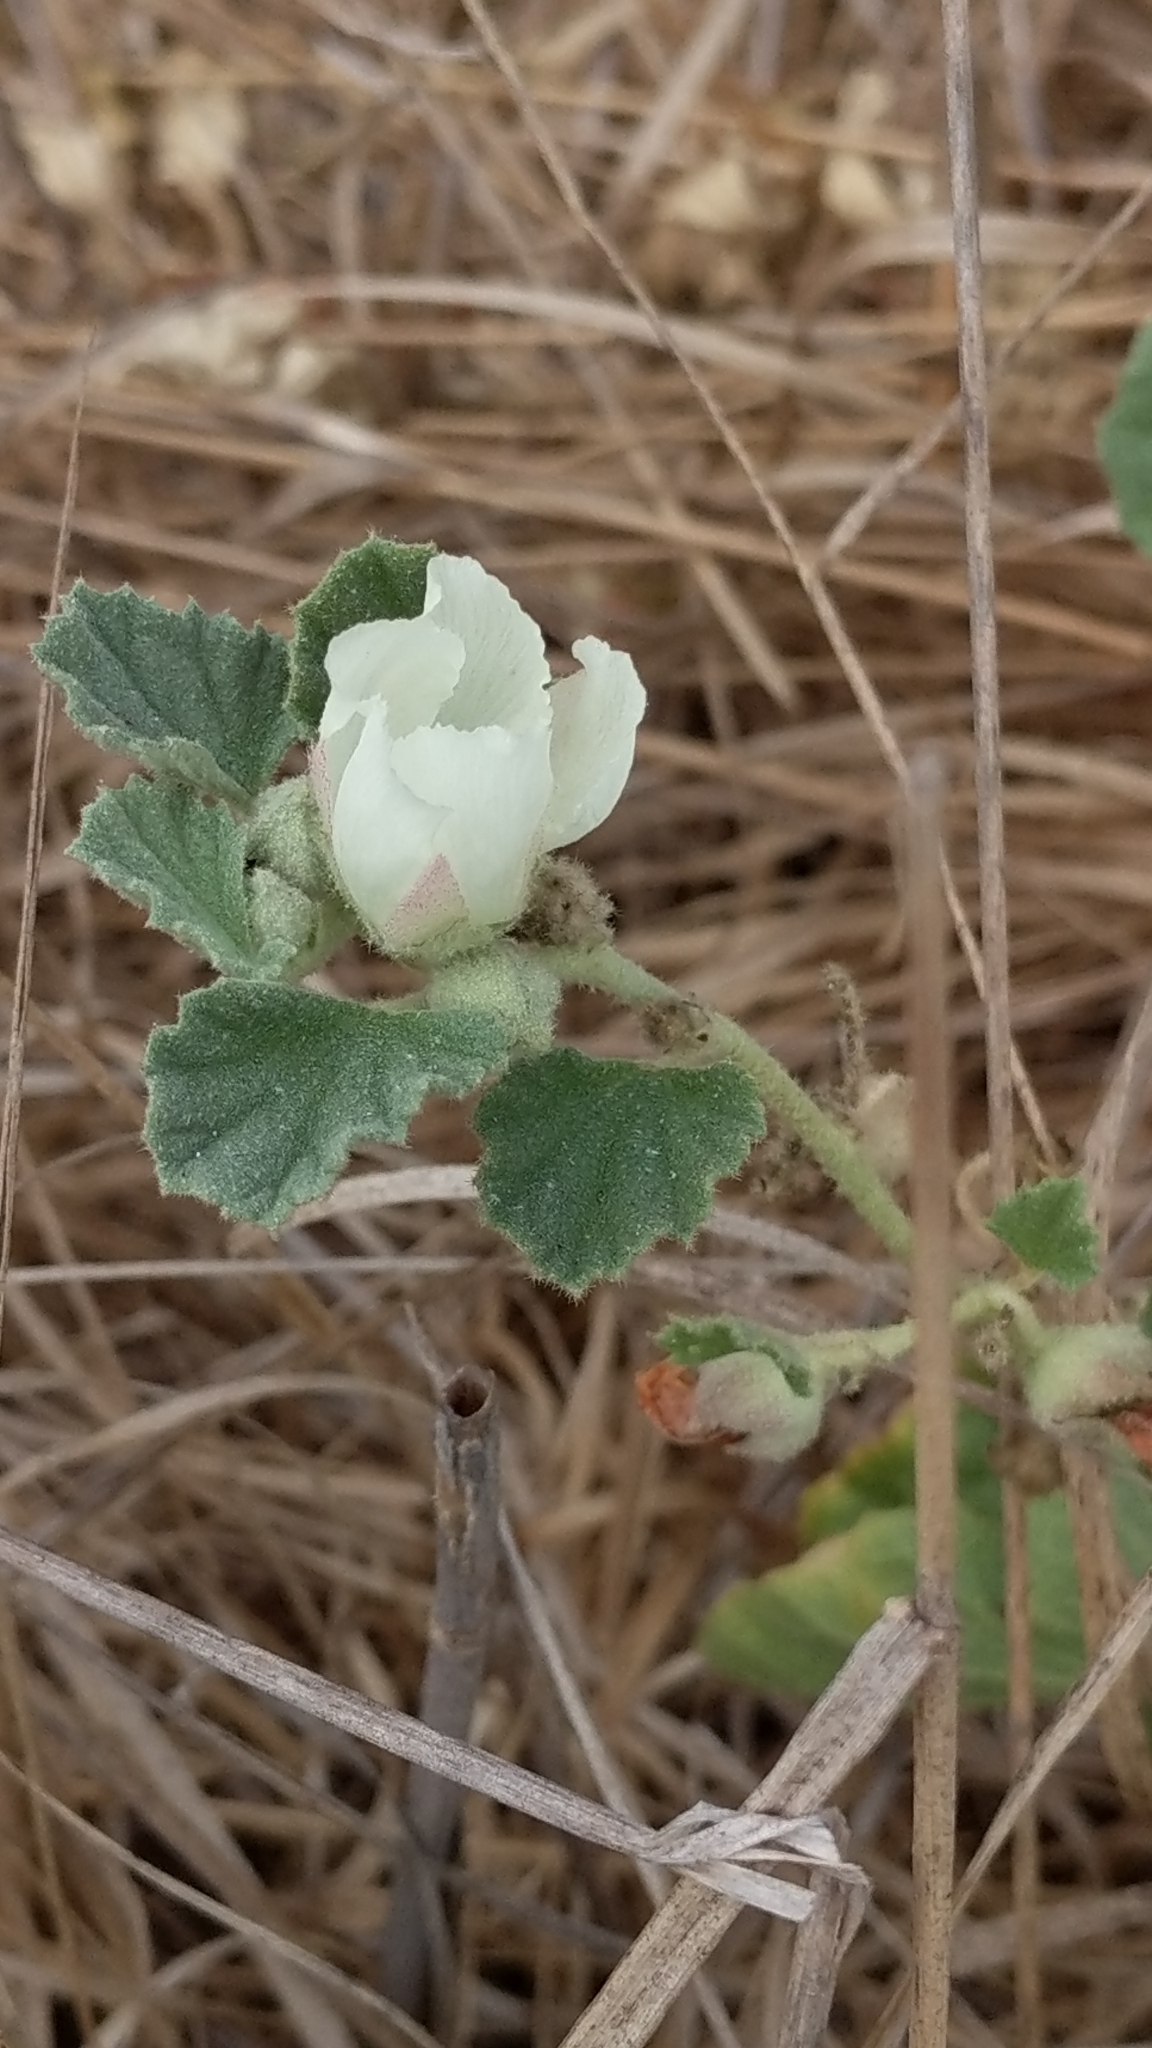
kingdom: Plantae
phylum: Tracheophyta
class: Magnoliopsida
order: Malvales
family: Malvaceae
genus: Malvella
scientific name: Malvella leprosa
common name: Alkali-mallow
